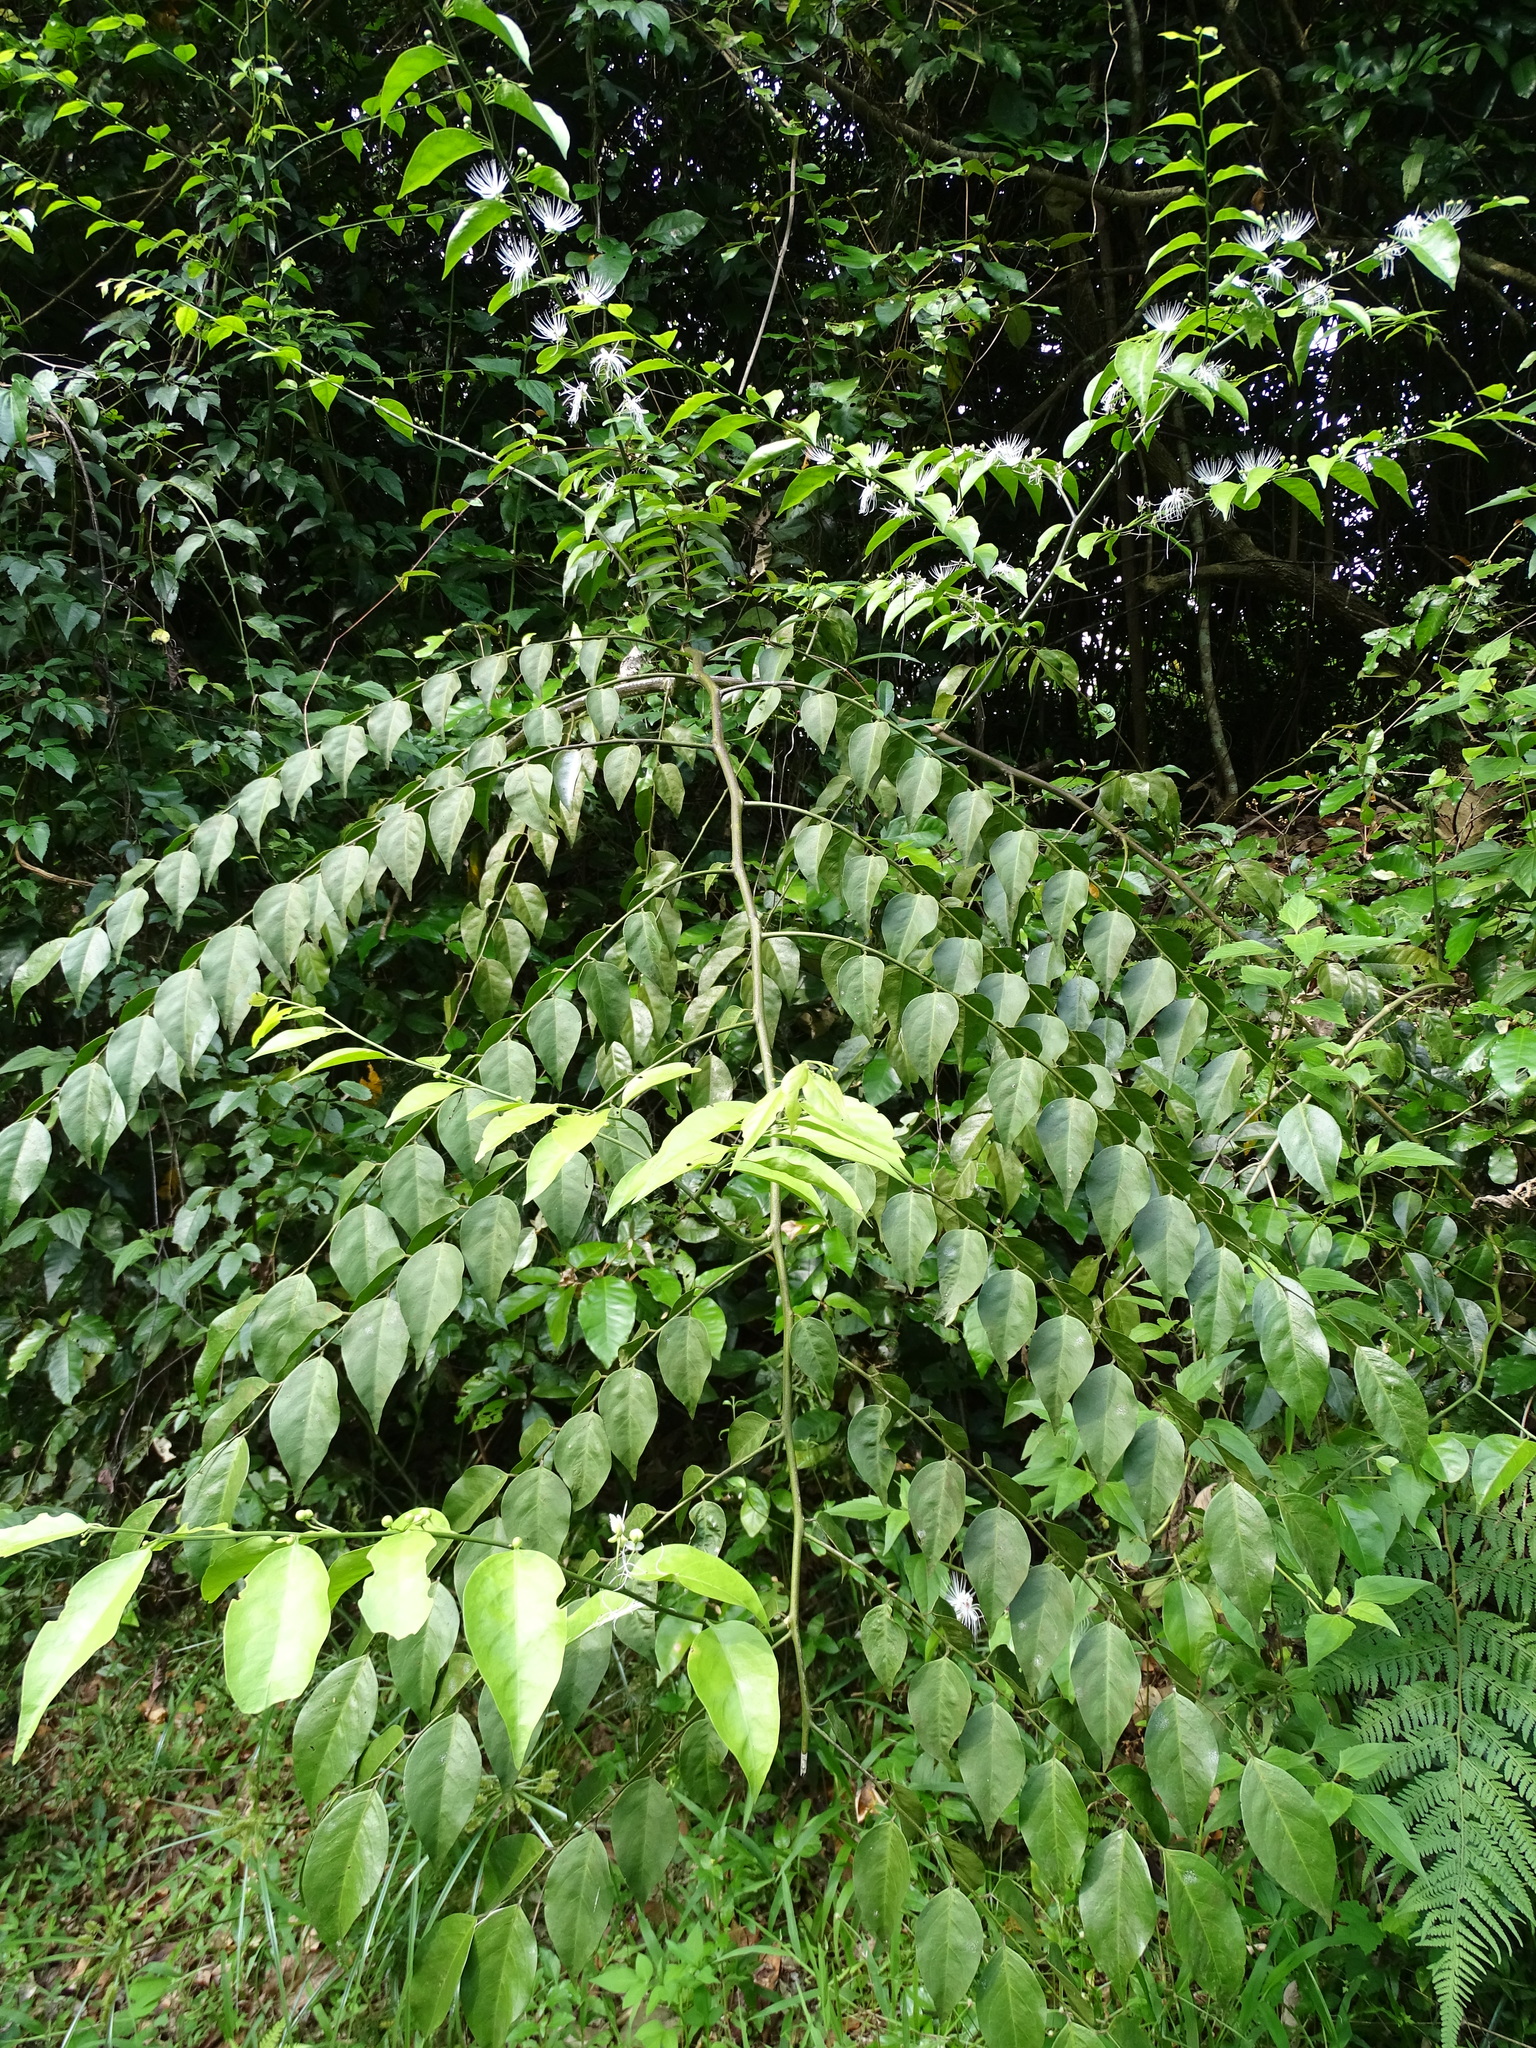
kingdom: Plantae
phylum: Tracheophyta
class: Magnoliopsida
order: Brassicales
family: Capparaceae
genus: Capparis
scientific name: Capparis sabiifolia
